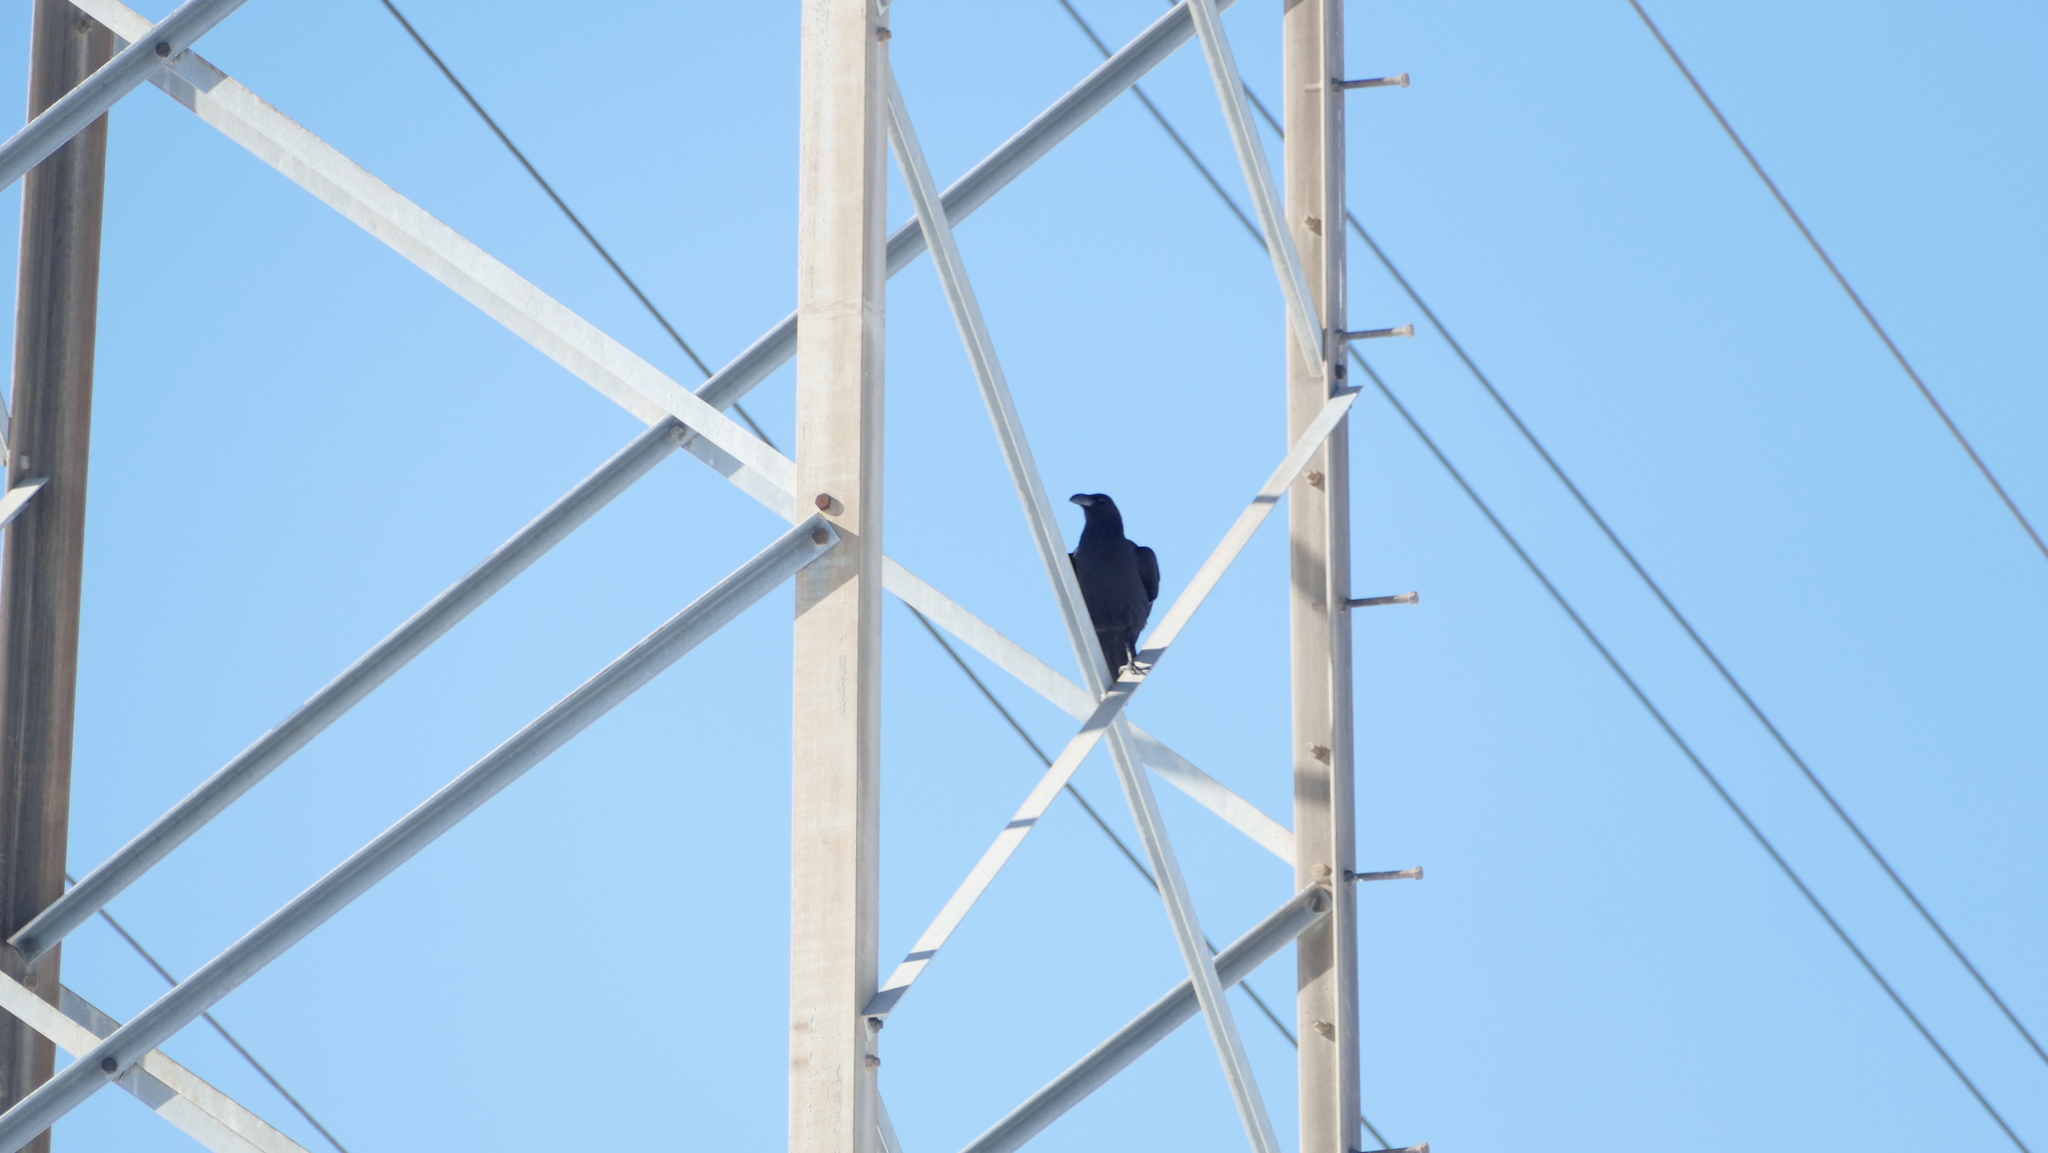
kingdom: Animalia
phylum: Chordata
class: Aves
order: Passeriformes
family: Corvidae
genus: Corvus
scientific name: Corvus corax
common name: Common raven
